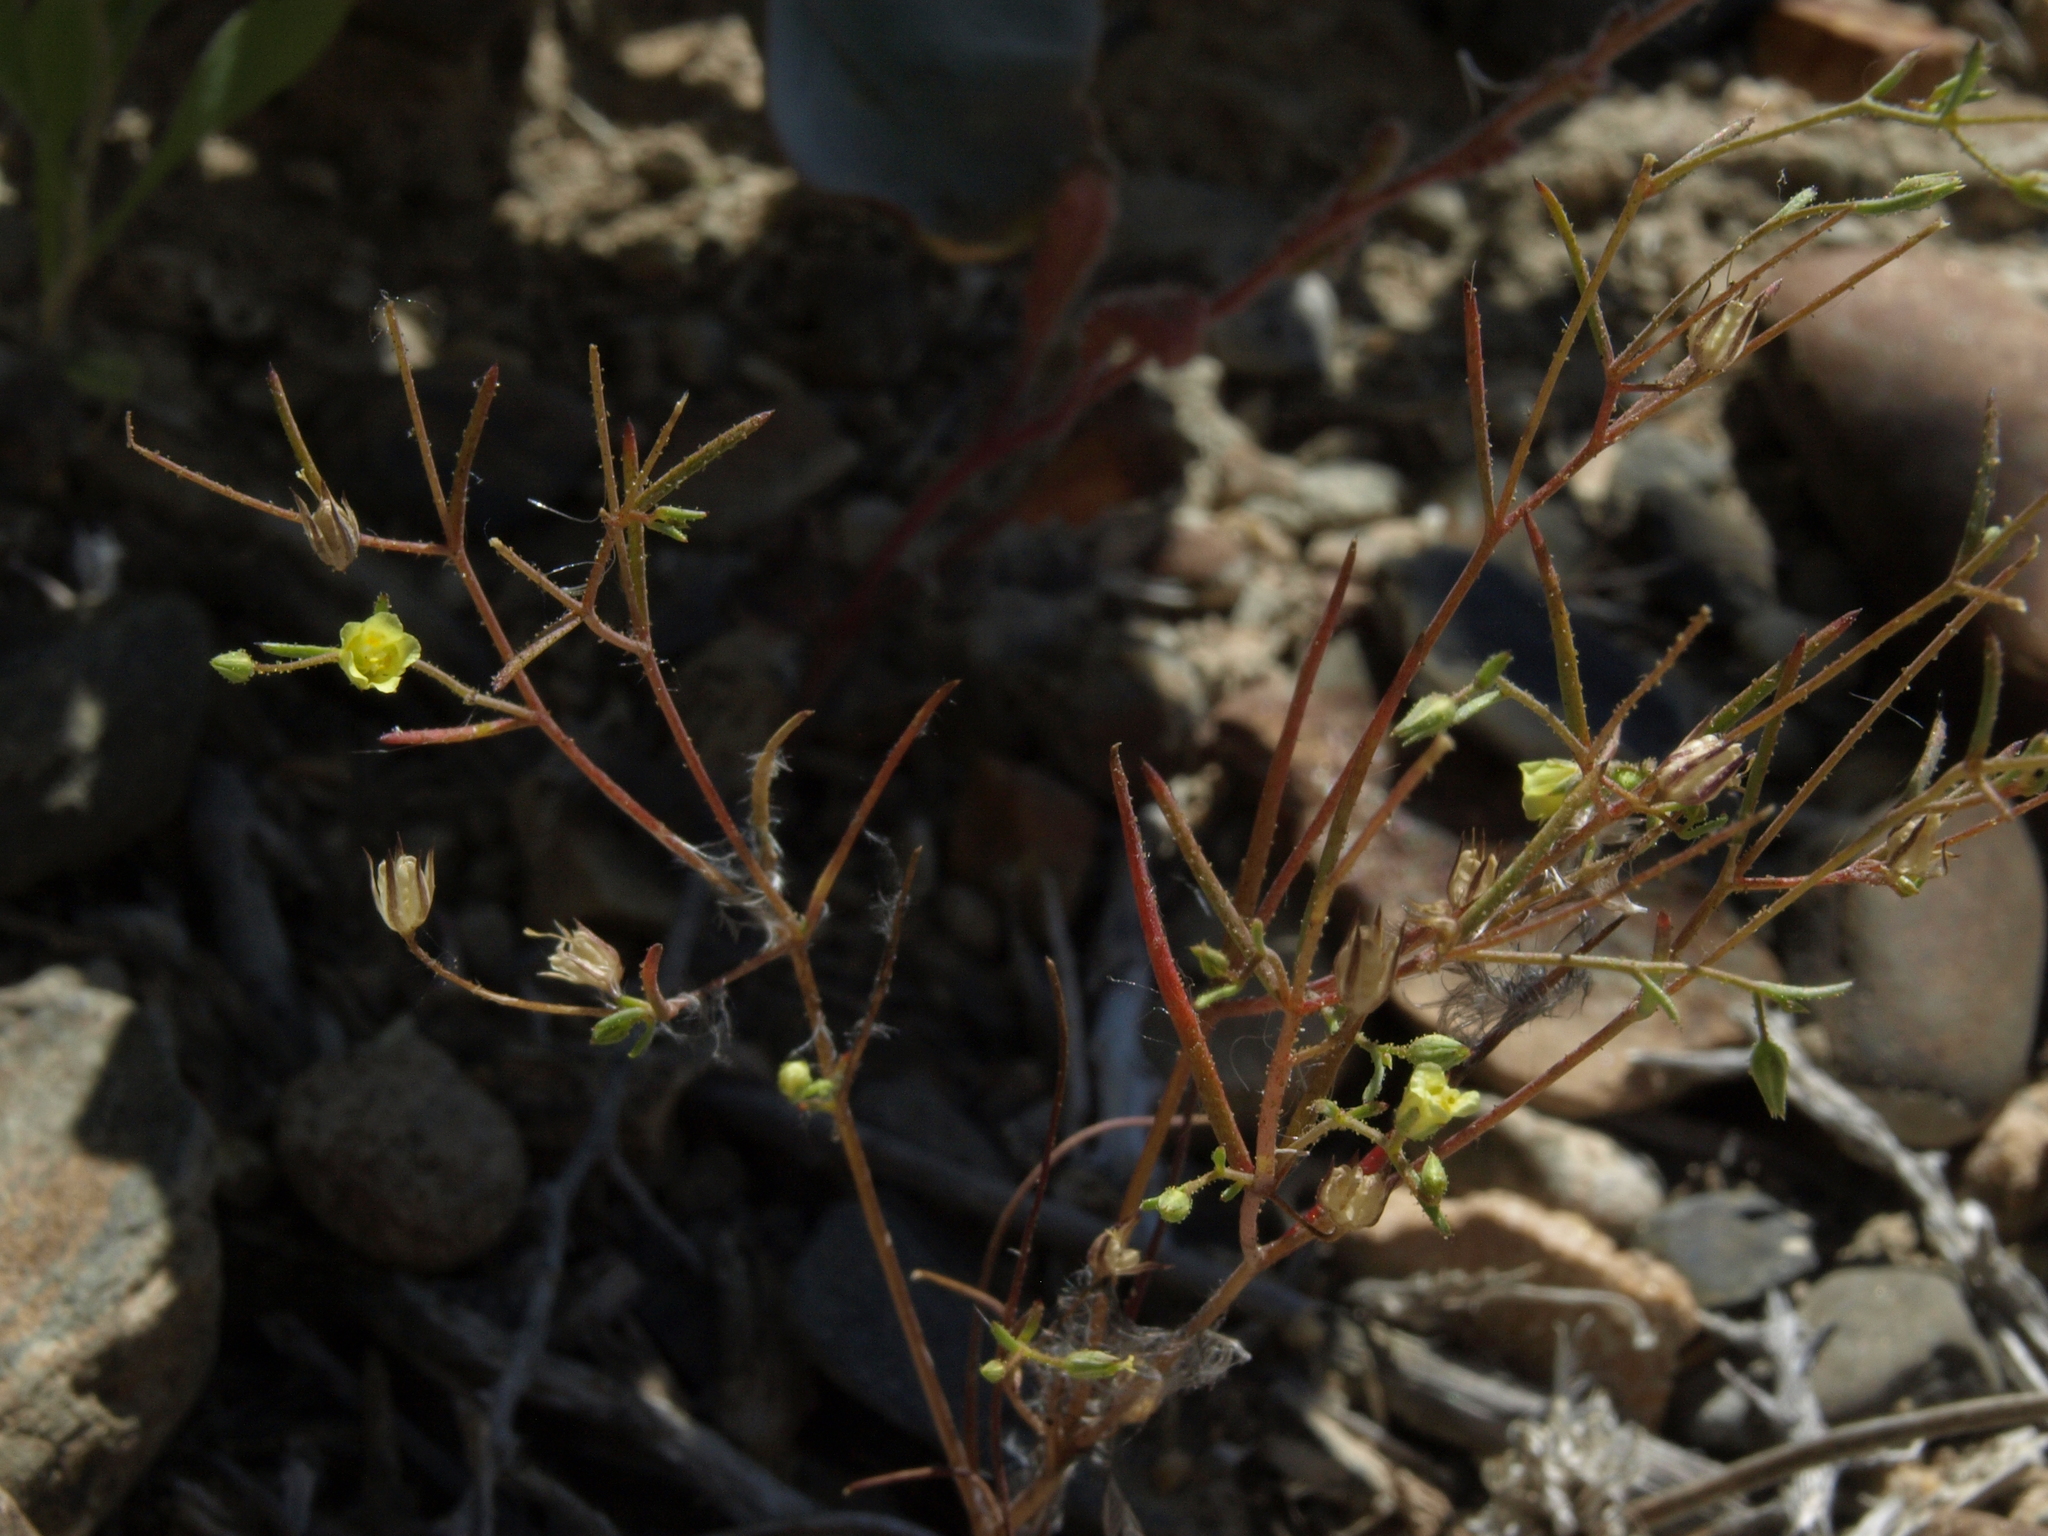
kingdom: Plantae
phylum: Tracheophyta
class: Magnoliopsida
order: Ericales
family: Polemoniaceae
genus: Linanthus
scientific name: Linanthus filiformis
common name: Yellow gilia
